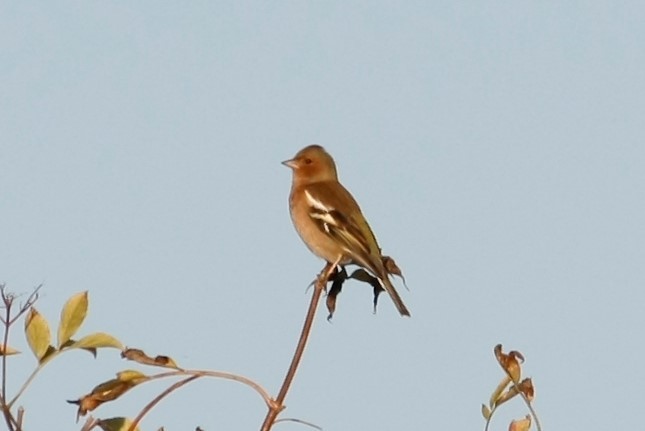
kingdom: Animalia
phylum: Chordata
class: Aves
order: Passeriformes
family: Fringillidae
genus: Fringilla
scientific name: Fringilla coelebs
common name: Common chaffinch
